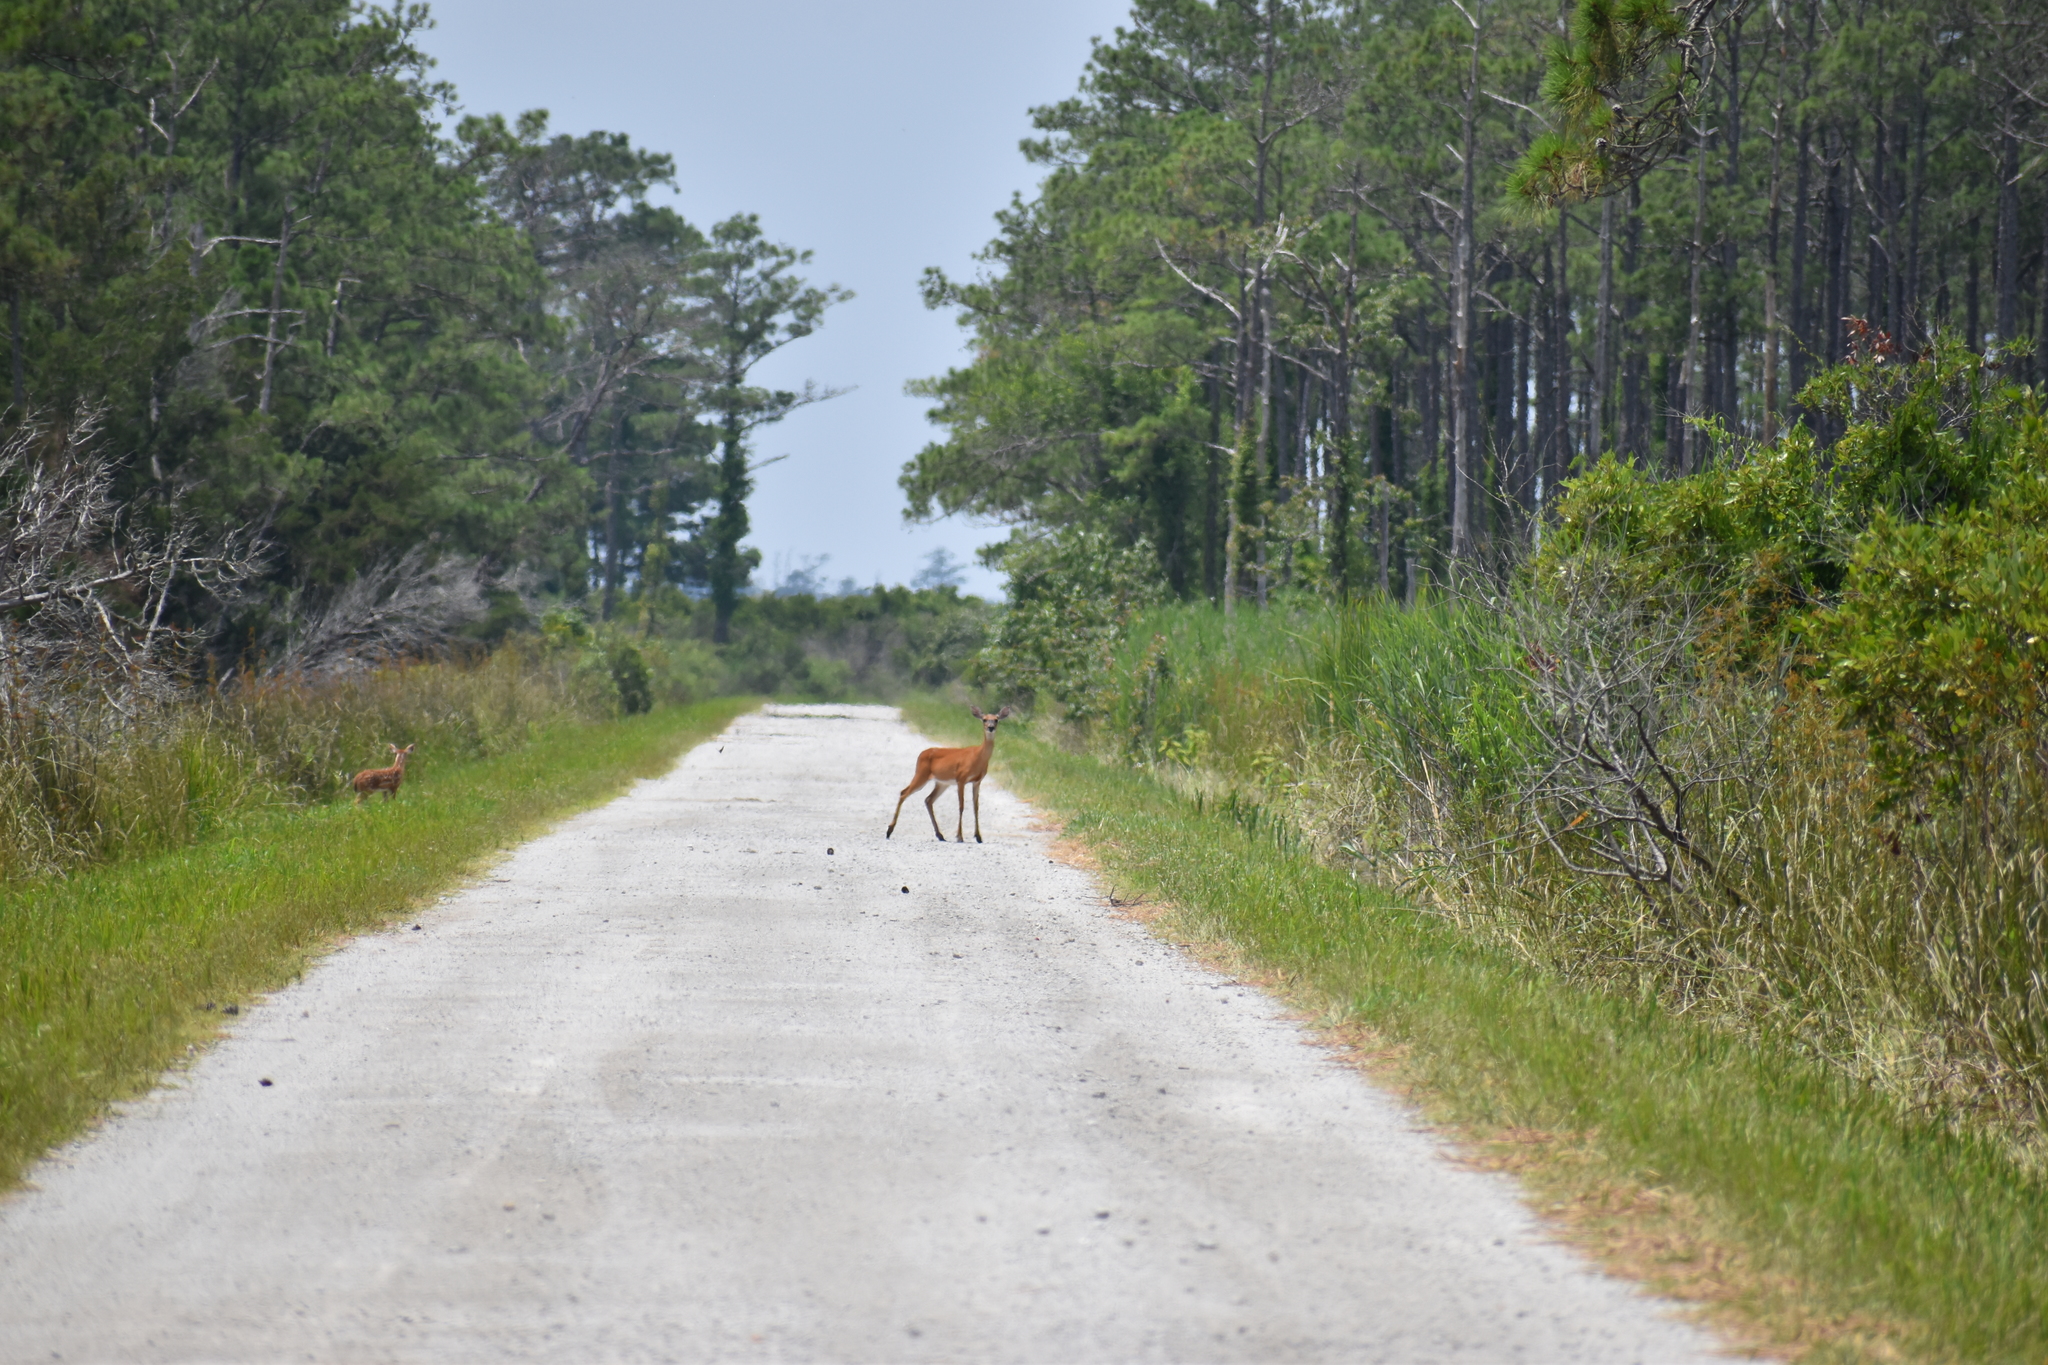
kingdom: Animalia
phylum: Chordata
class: Mammalia
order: Artiodactyla
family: Cervidae
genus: Odocoileus
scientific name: Odocoileus virginianus
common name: White-tailed deer
